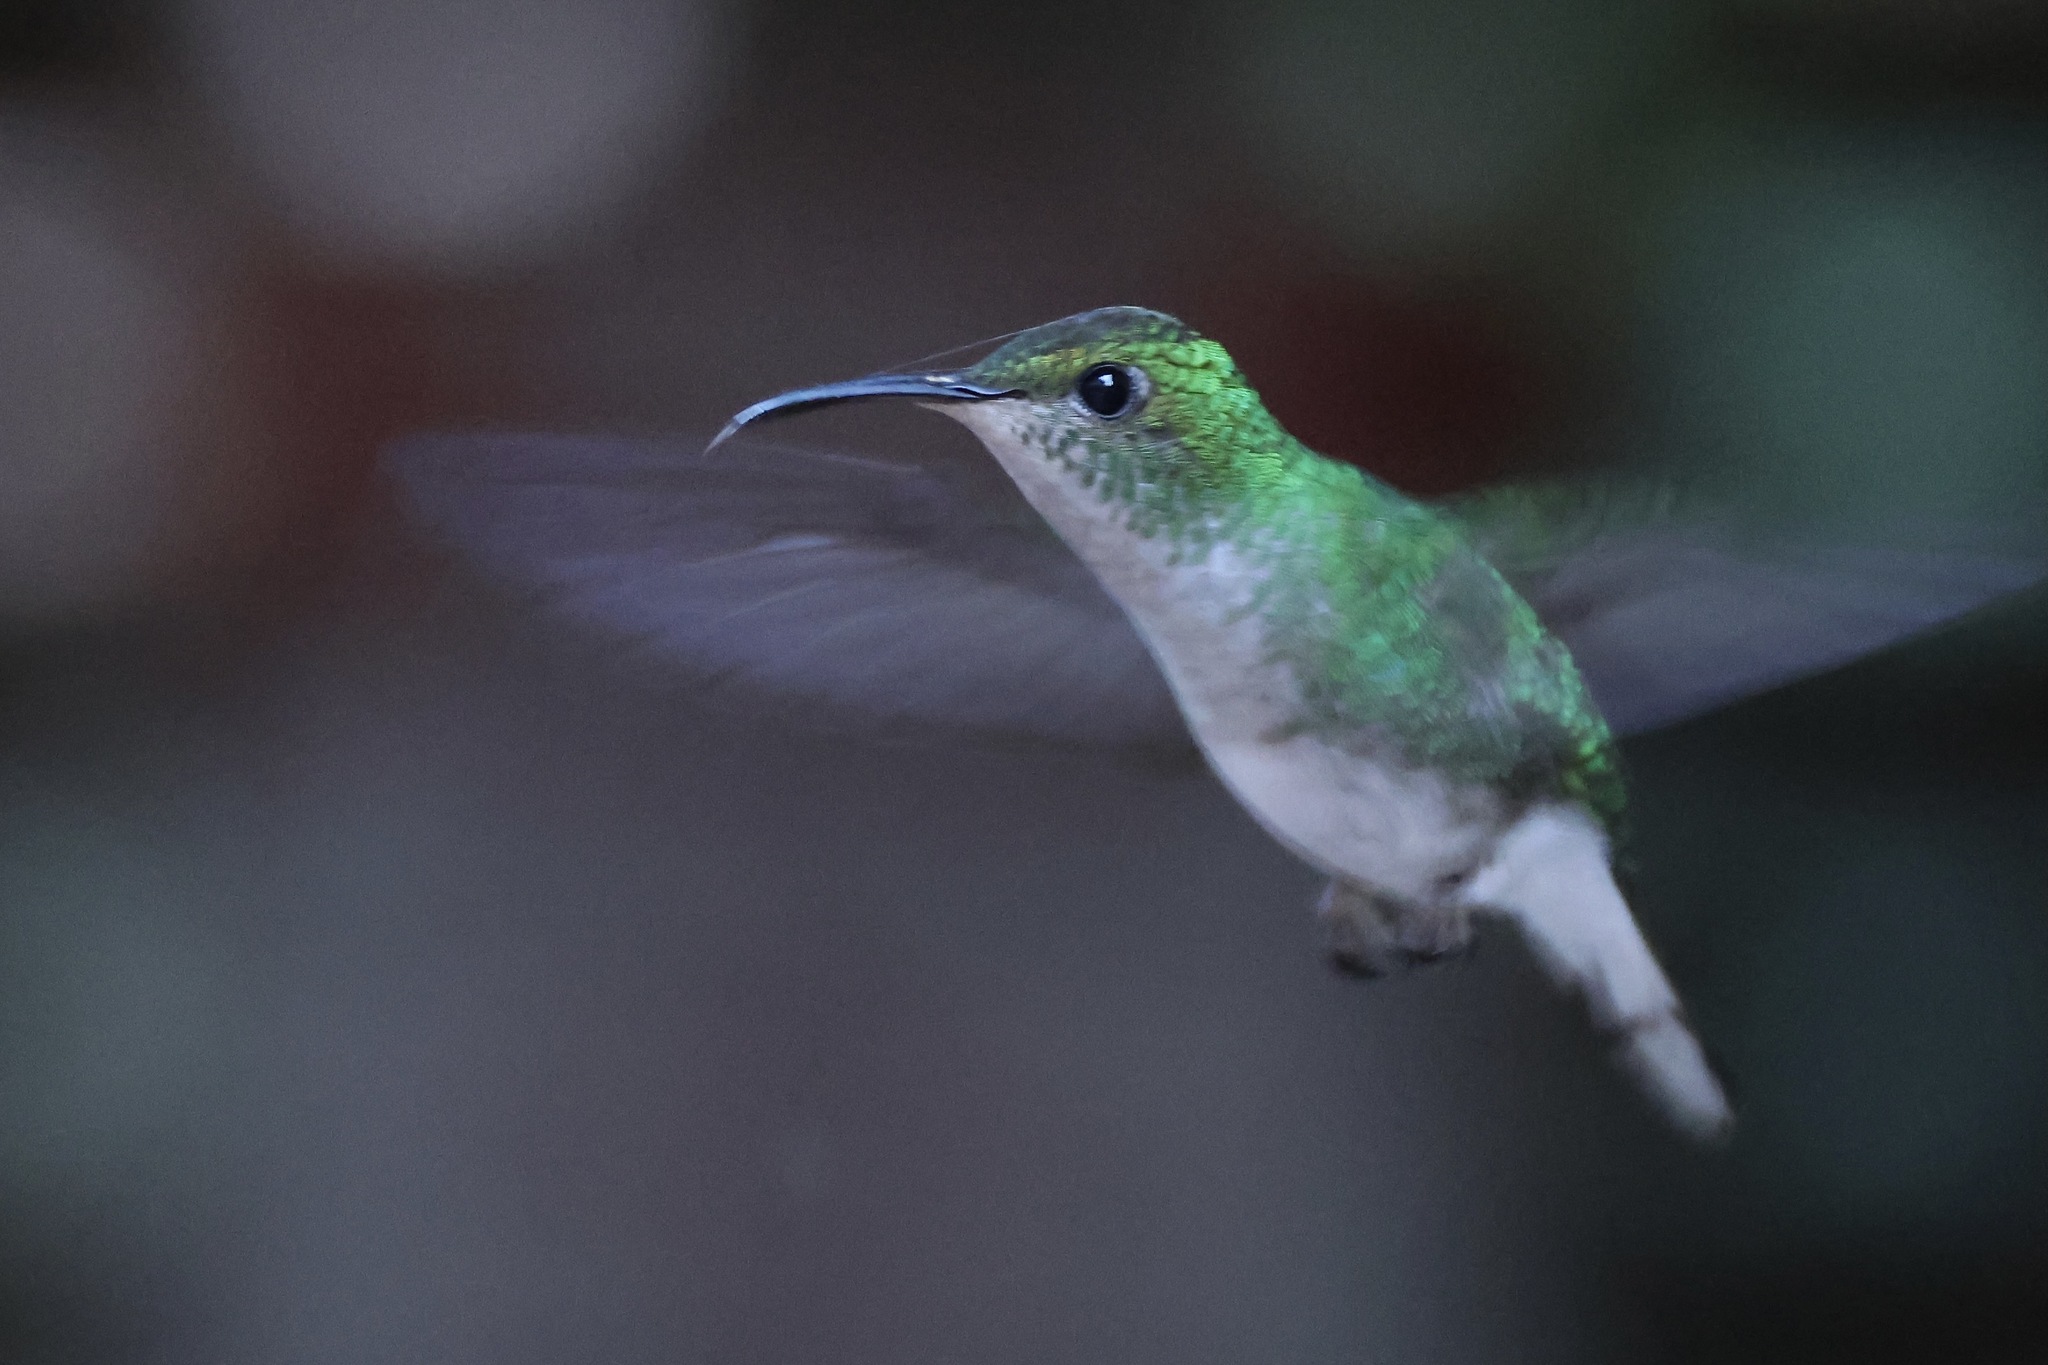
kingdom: Animalia
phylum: Chordata
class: Aves
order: Apodiformes
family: Trochilidae
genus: Microchera
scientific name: Microchera cupreiceps
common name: Coppery-headed emerald
